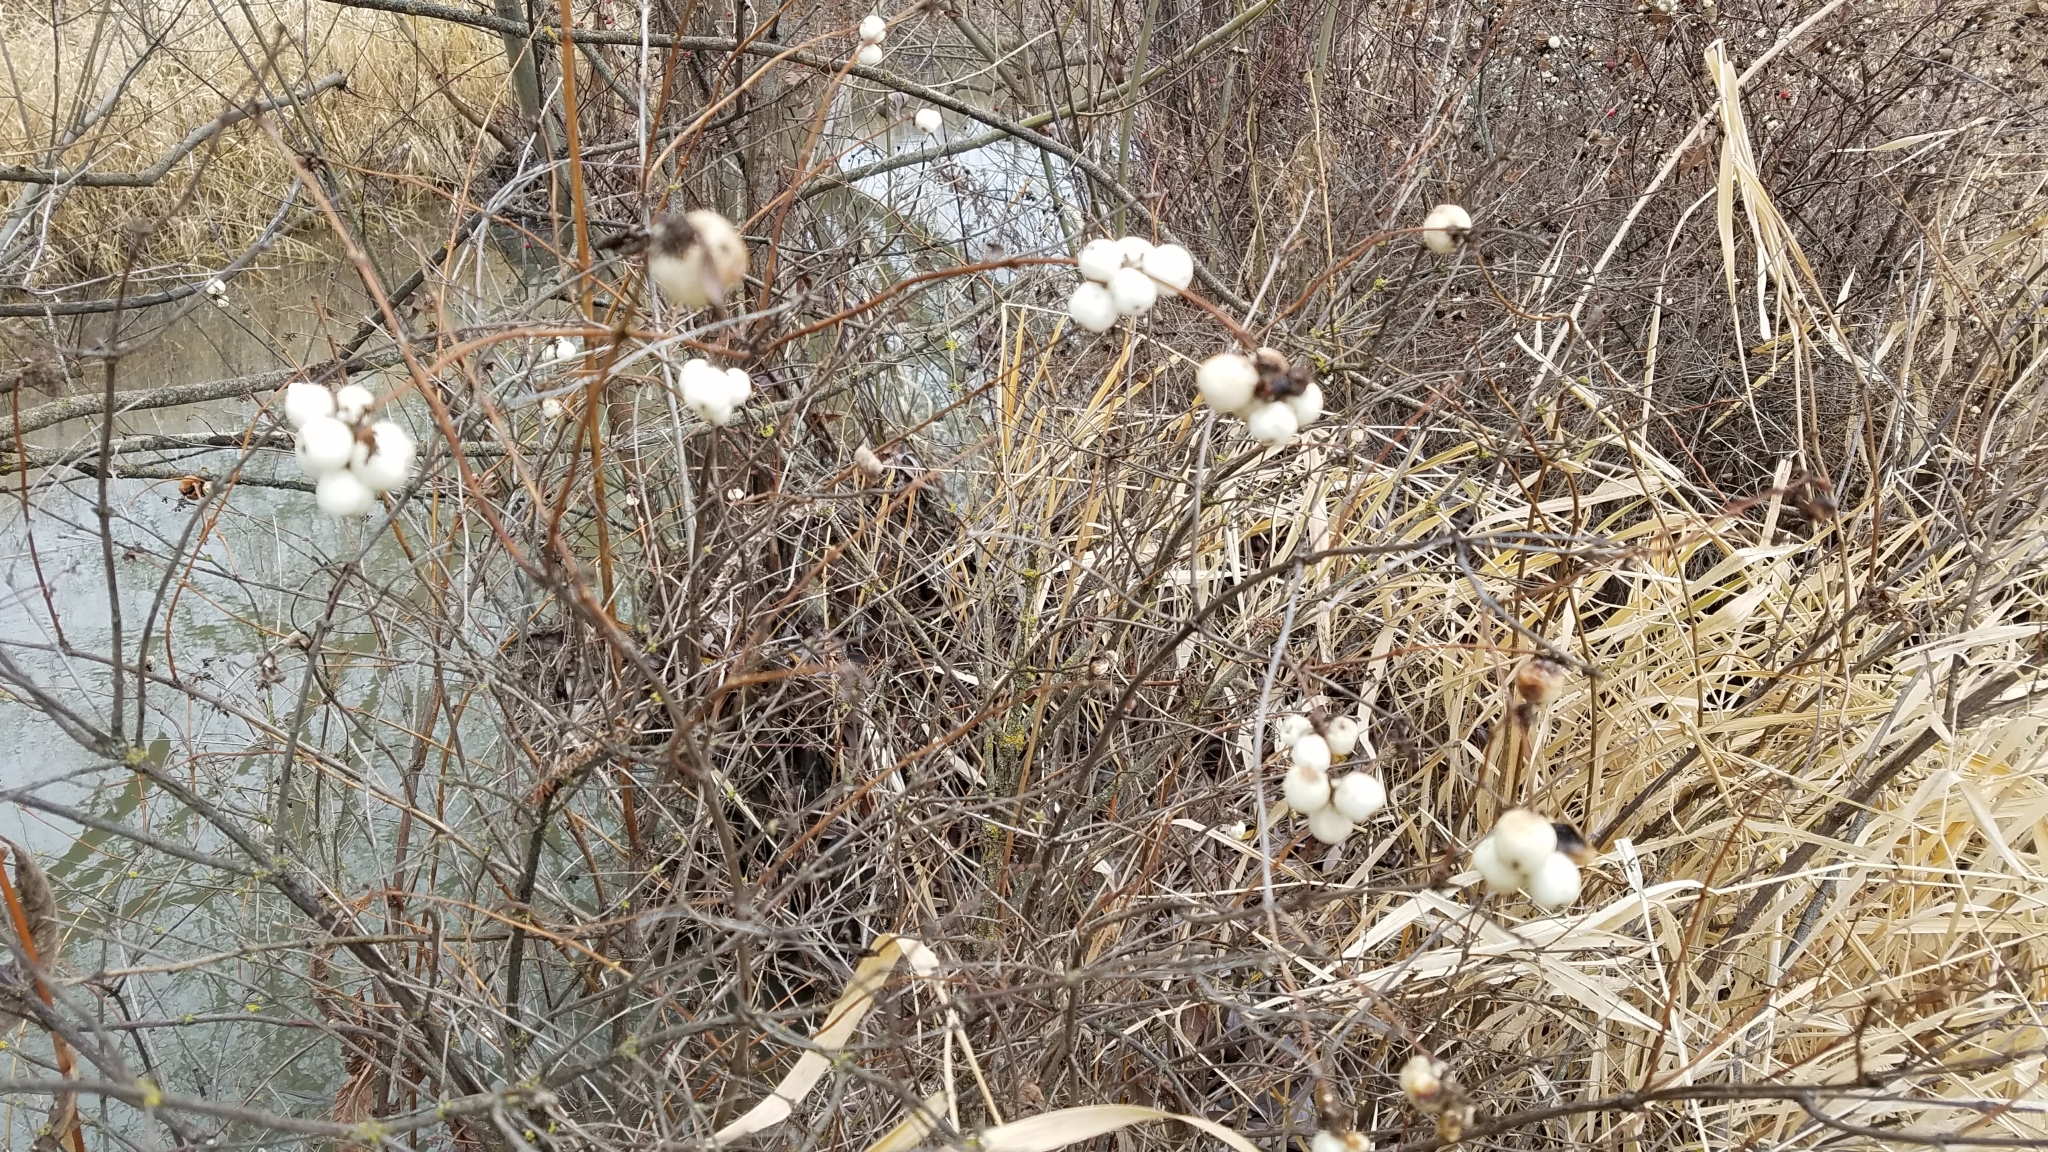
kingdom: Plantae
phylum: Tracheophyta
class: Magnoliopsida
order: Dipsacales
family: Caprifoliaceae
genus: Symphoricarpos
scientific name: Symphoricarpos albus
